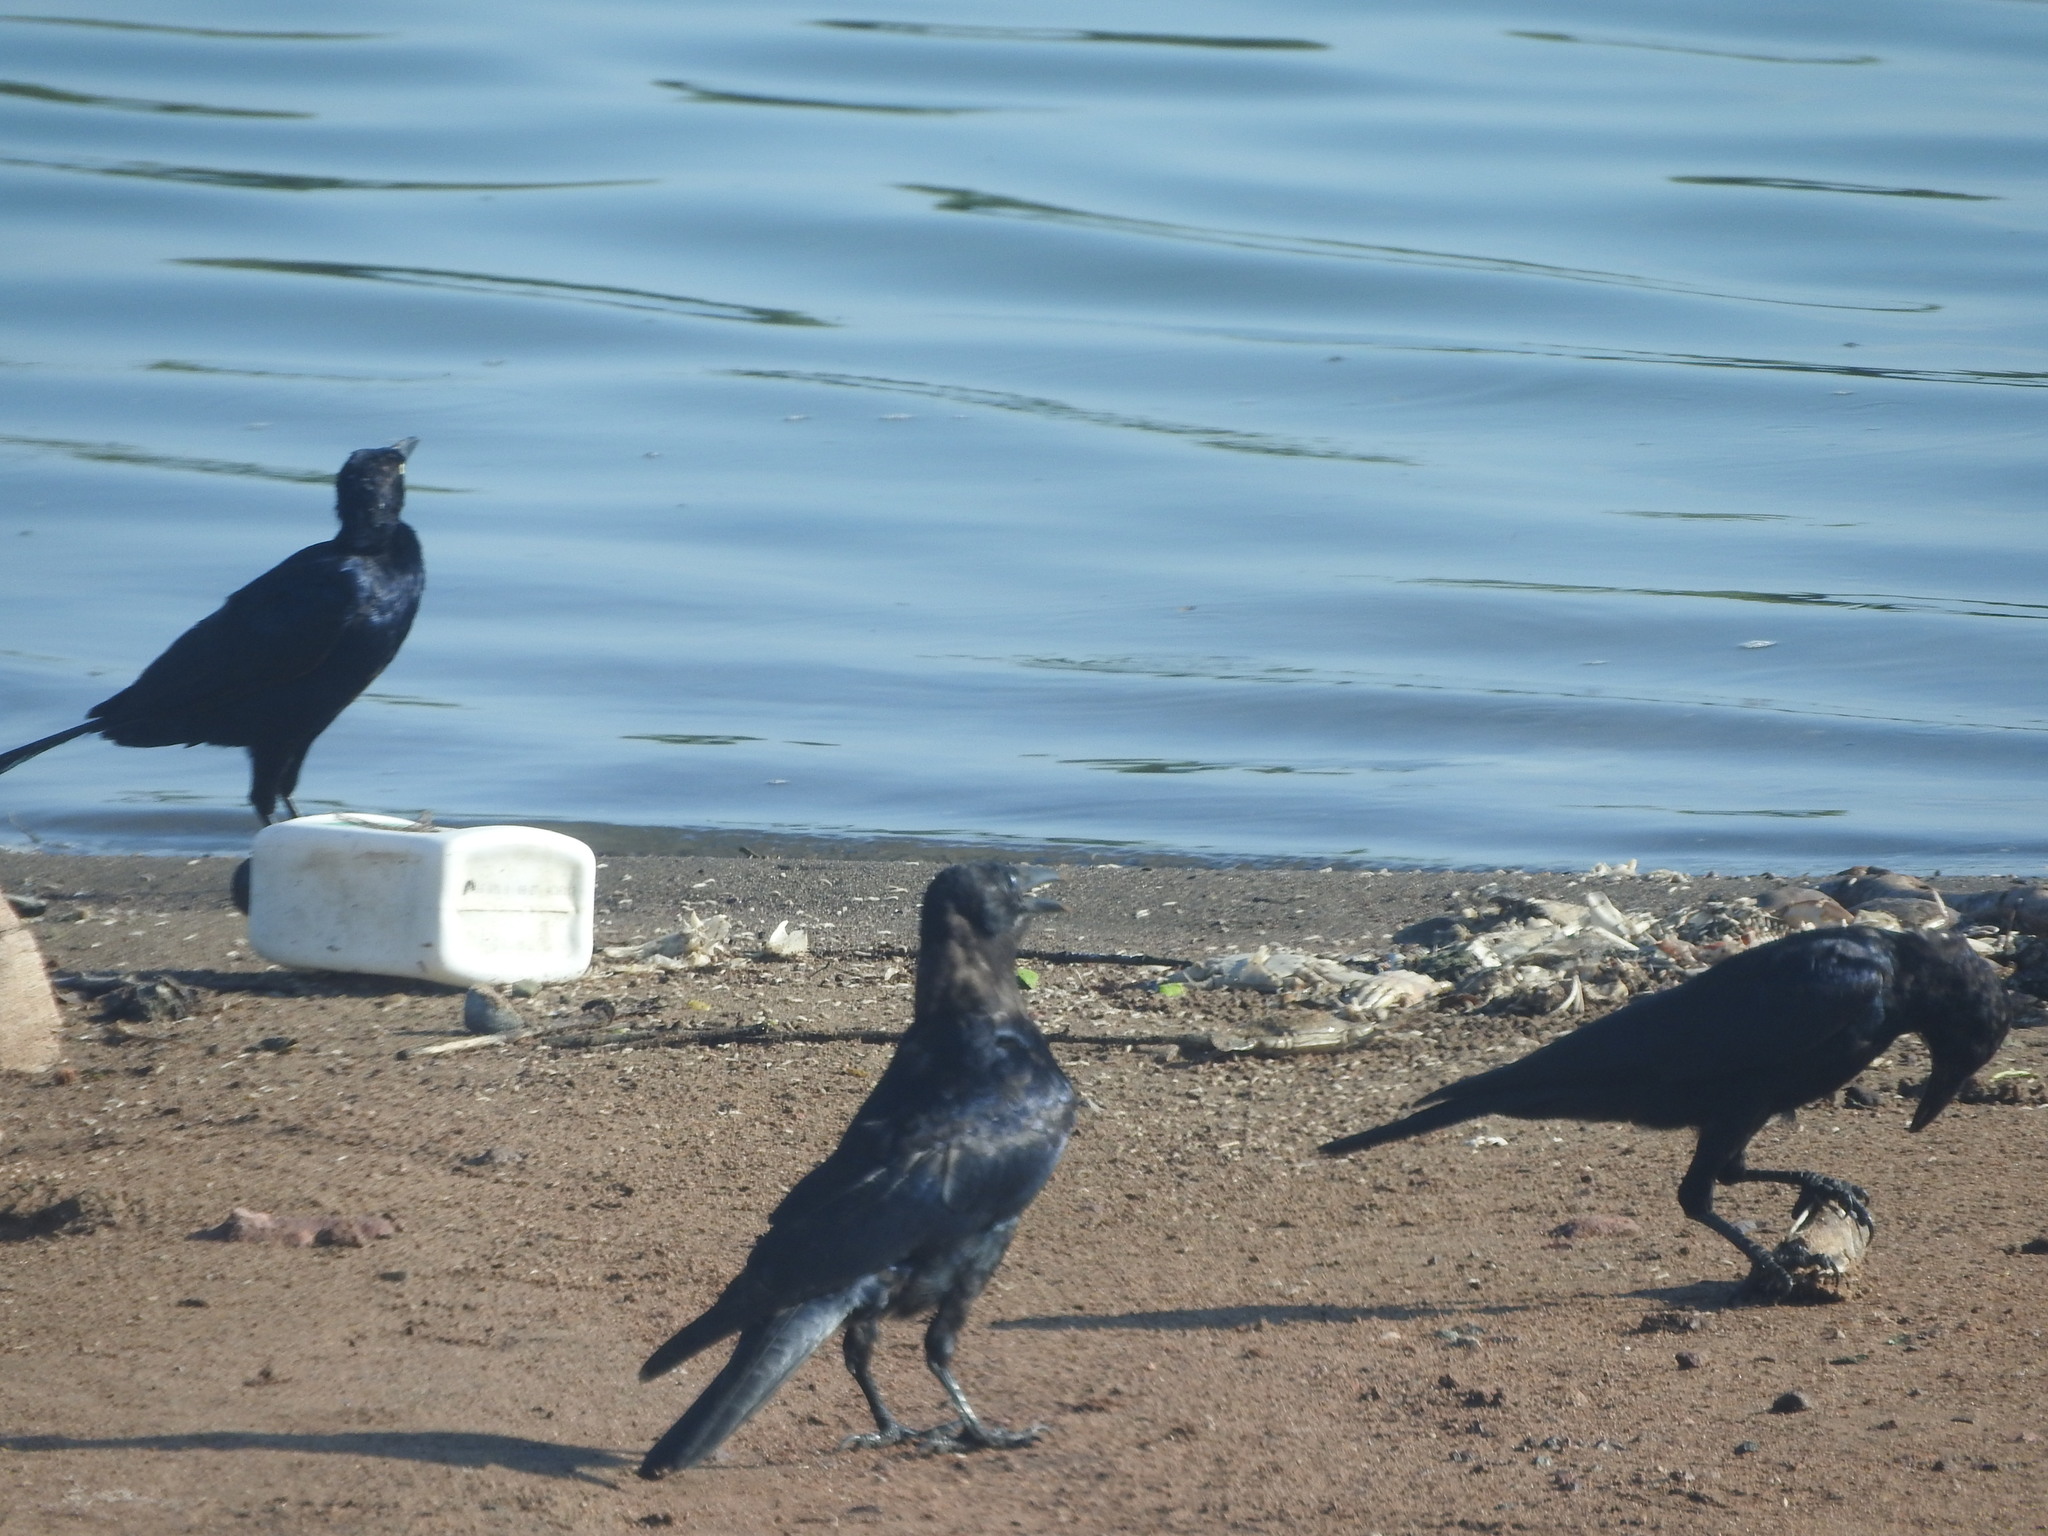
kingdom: Animalia
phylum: Chordata
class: Aves
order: Passeriformes
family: Corvidae
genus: Corvus
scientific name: Corvus sinaloae
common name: Sinaloa crow
